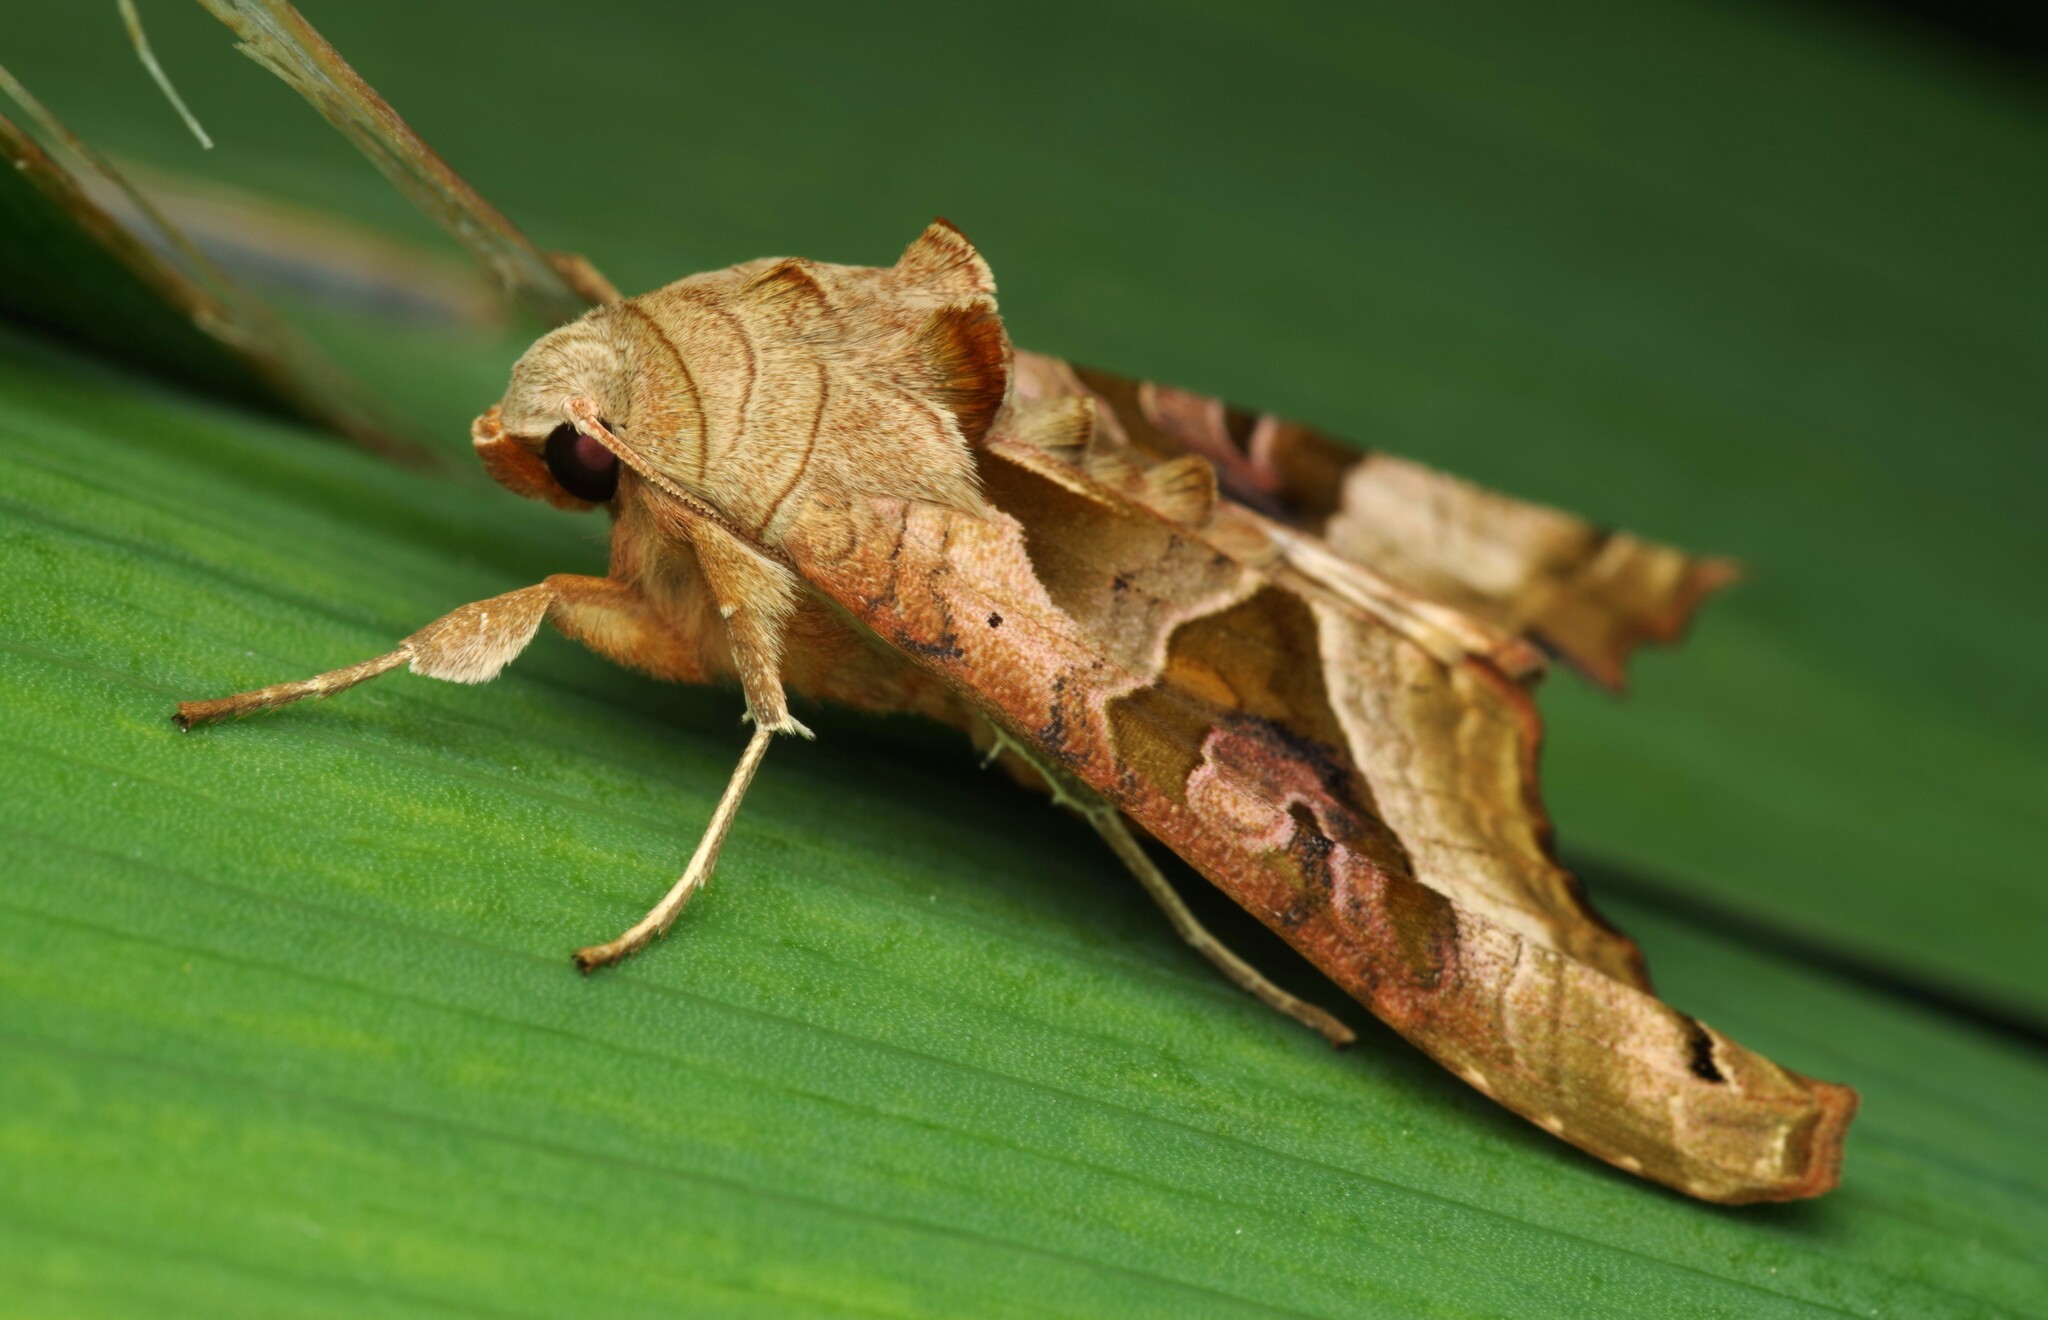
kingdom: Animalia
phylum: Arthropoda
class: Insecta
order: Lepidoptera
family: Noctuidae
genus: Phlogophora
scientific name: Phlogophora meticulosa
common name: Angle shades
